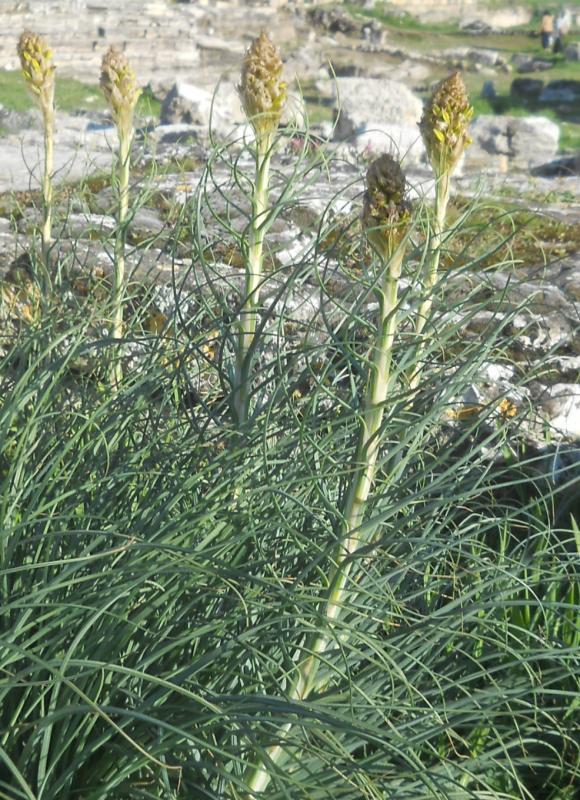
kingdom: Plantae
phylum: Tracheophyta
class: Liliopsida
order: Asparagales
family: Asphodelaceae
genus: Asphodeline
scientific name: Asphodeline lutea
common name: Yellow asphodel
